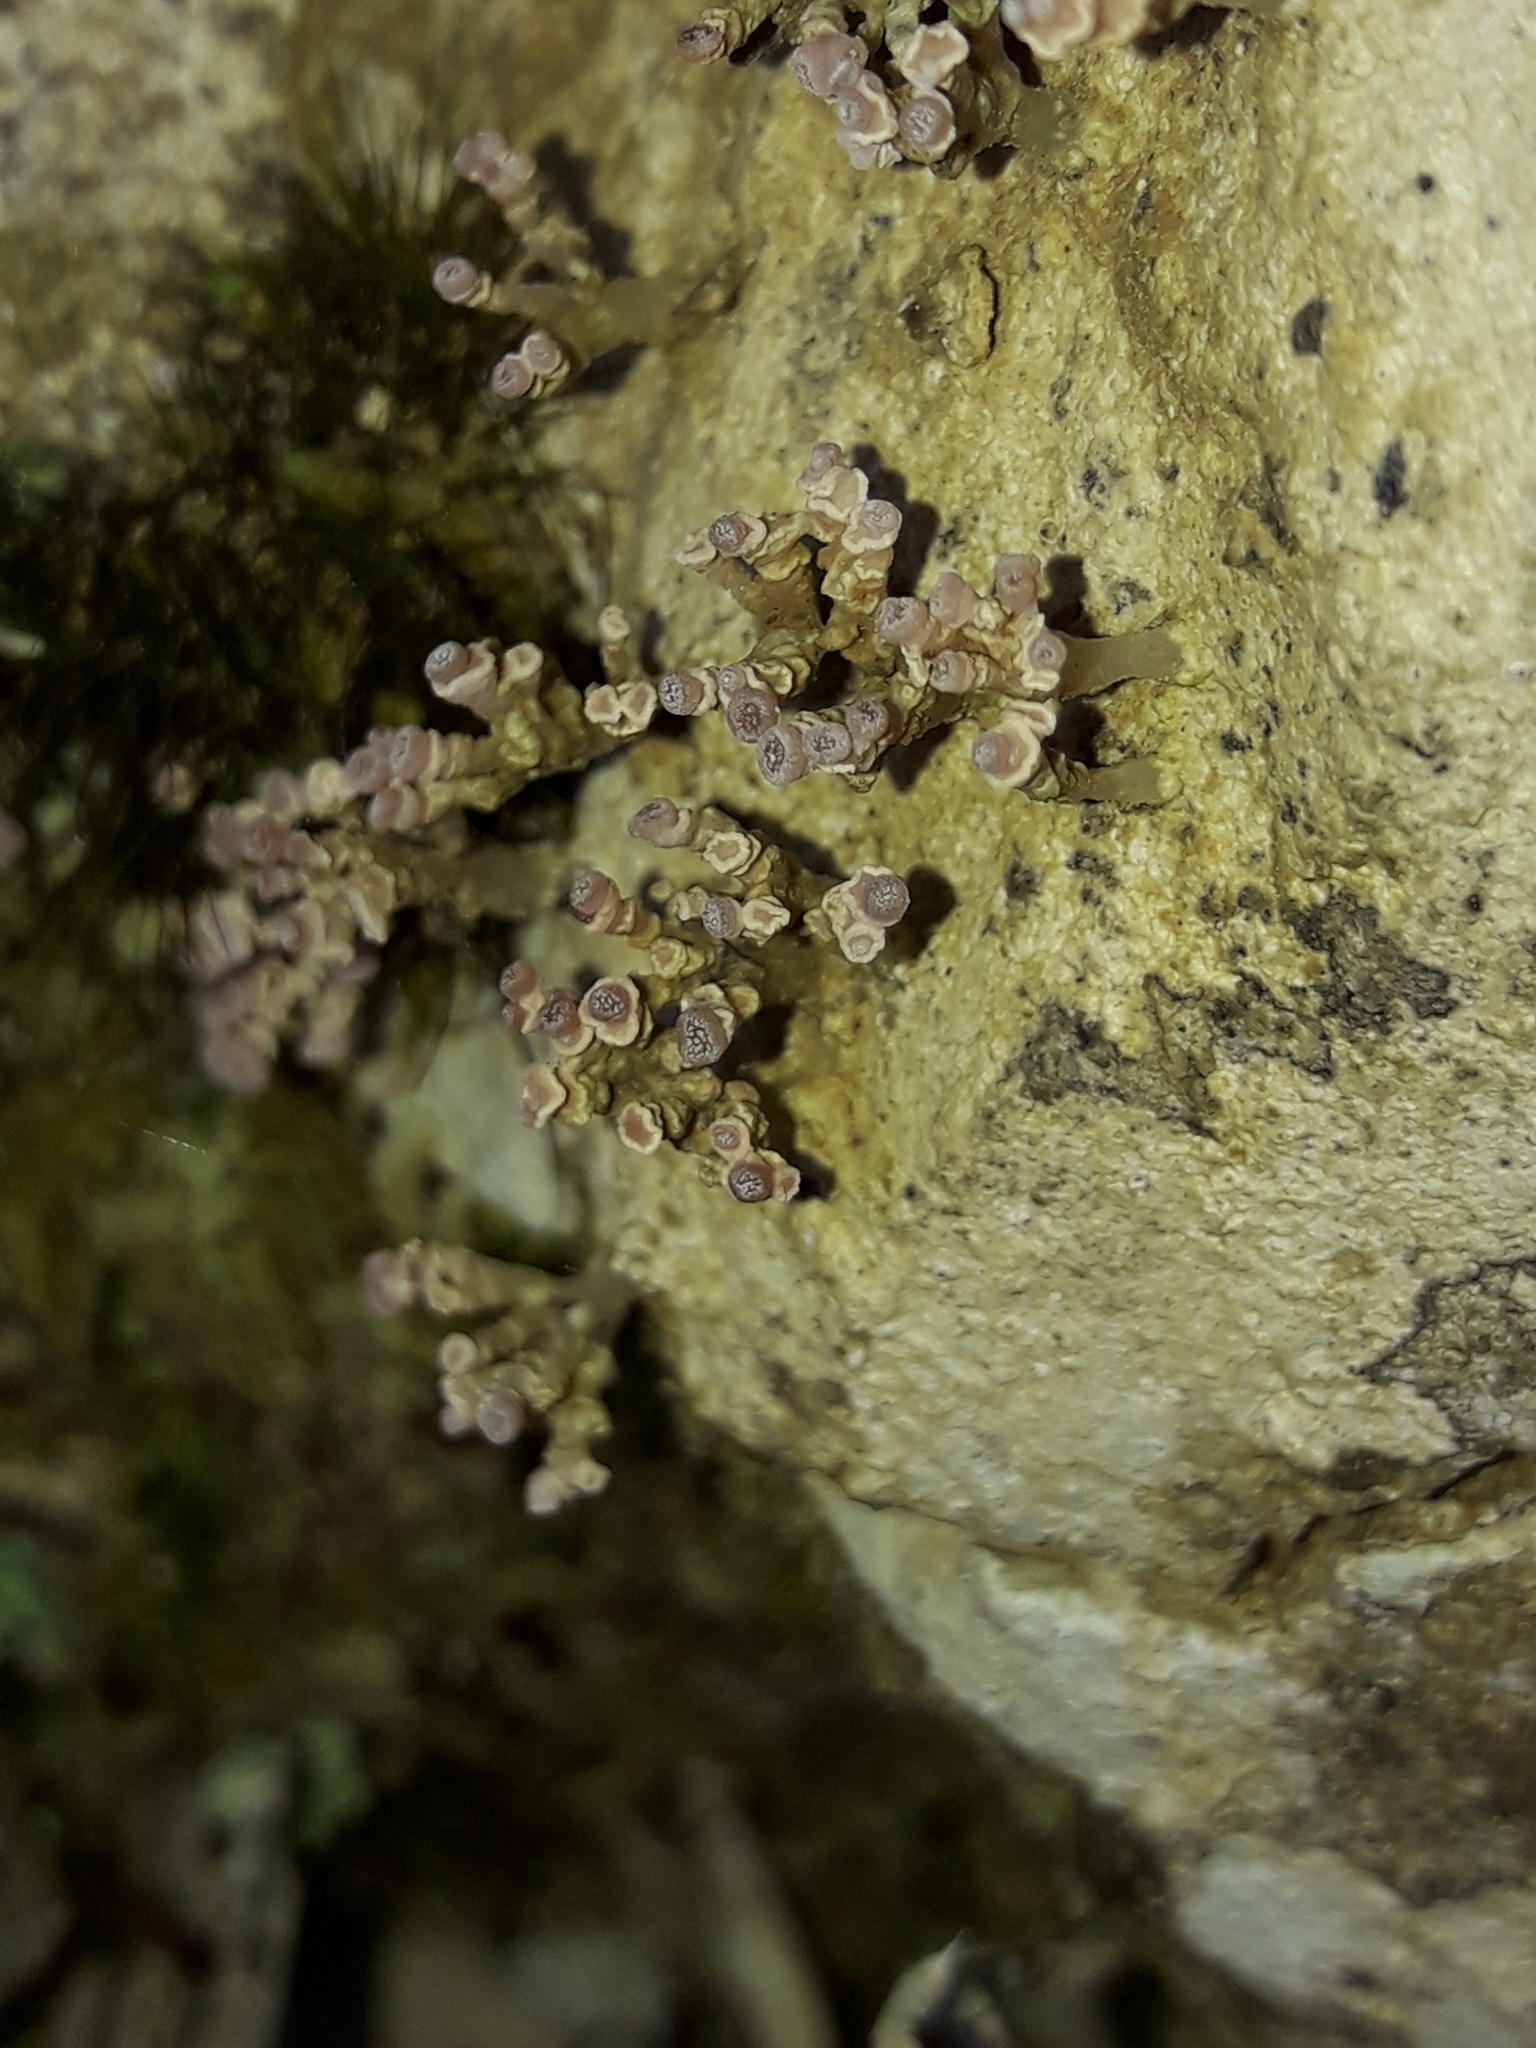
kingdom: Fungi
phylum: Ascomycota
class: Lecanoromycetes
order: Baeomycetales
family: Baeomycetaceae
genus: Baeomyces
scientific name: Baeomyces heteromorphus
